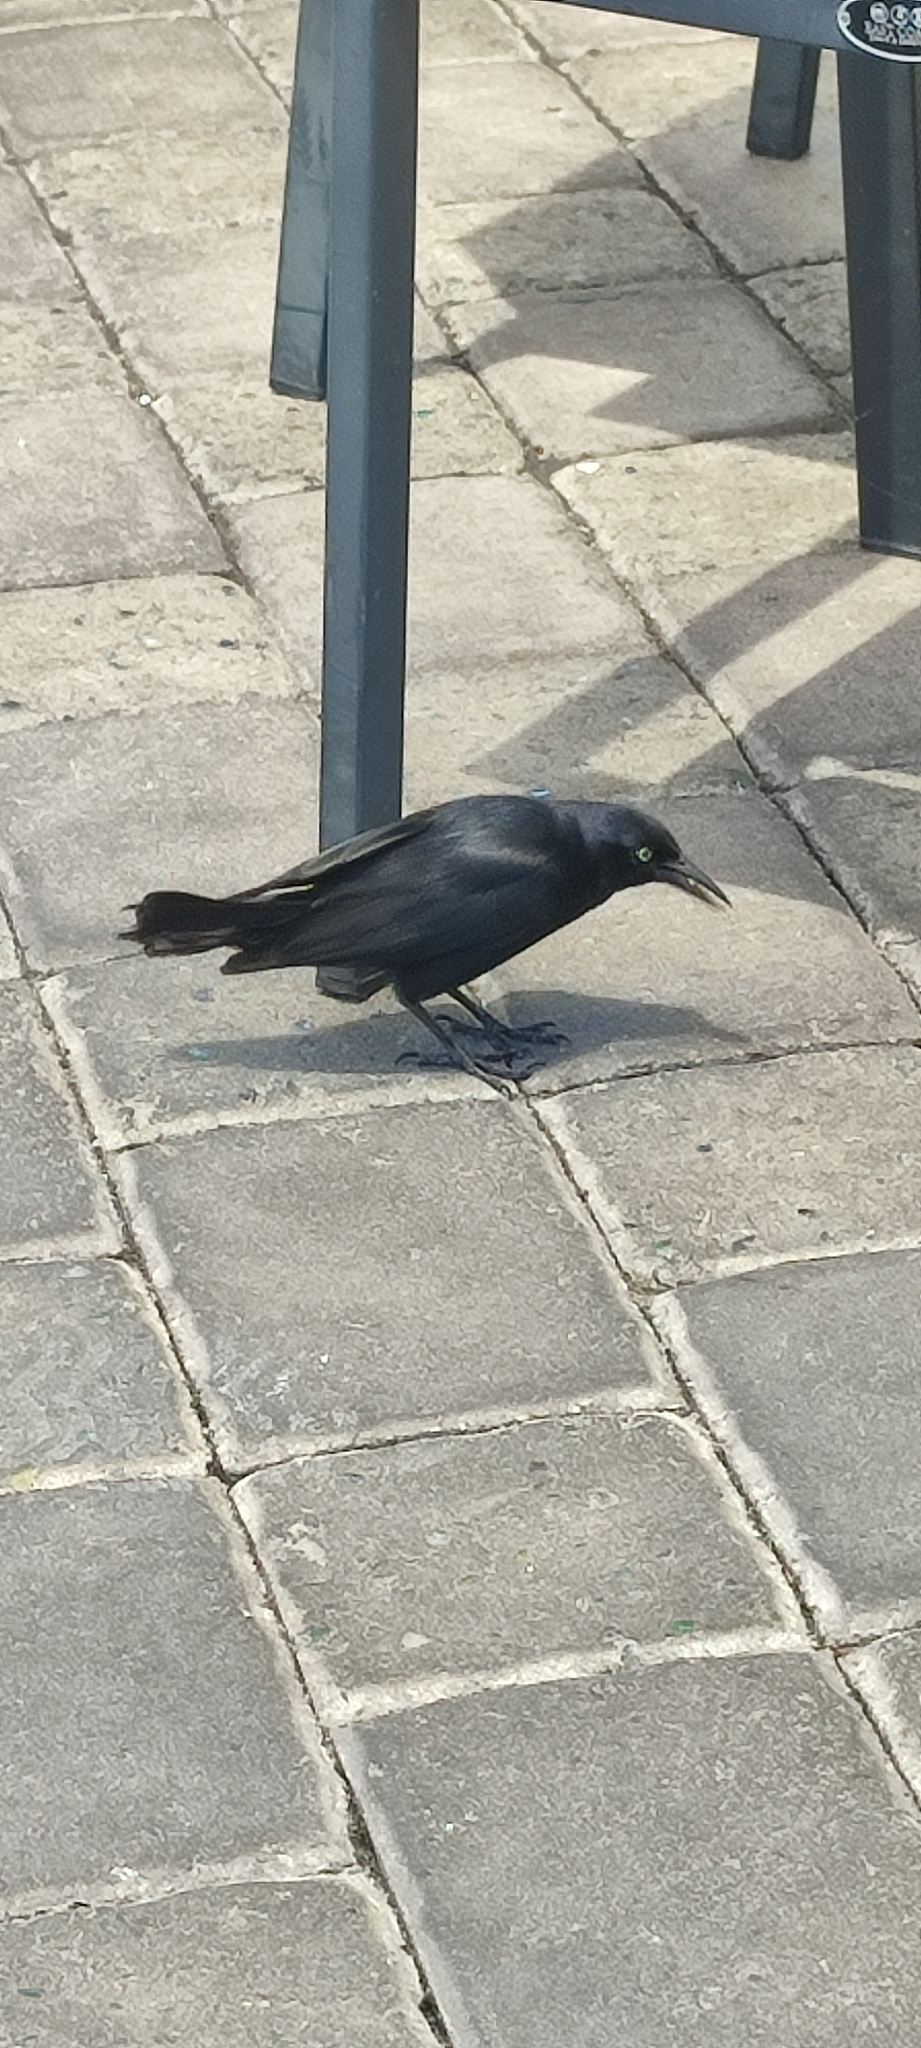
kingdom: Animalia
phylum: Chordata
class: Aves
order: Passeriformes
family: Icteridae
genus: Quiscalus
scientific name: Quiscalus niger
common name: Greater antillean grackle
